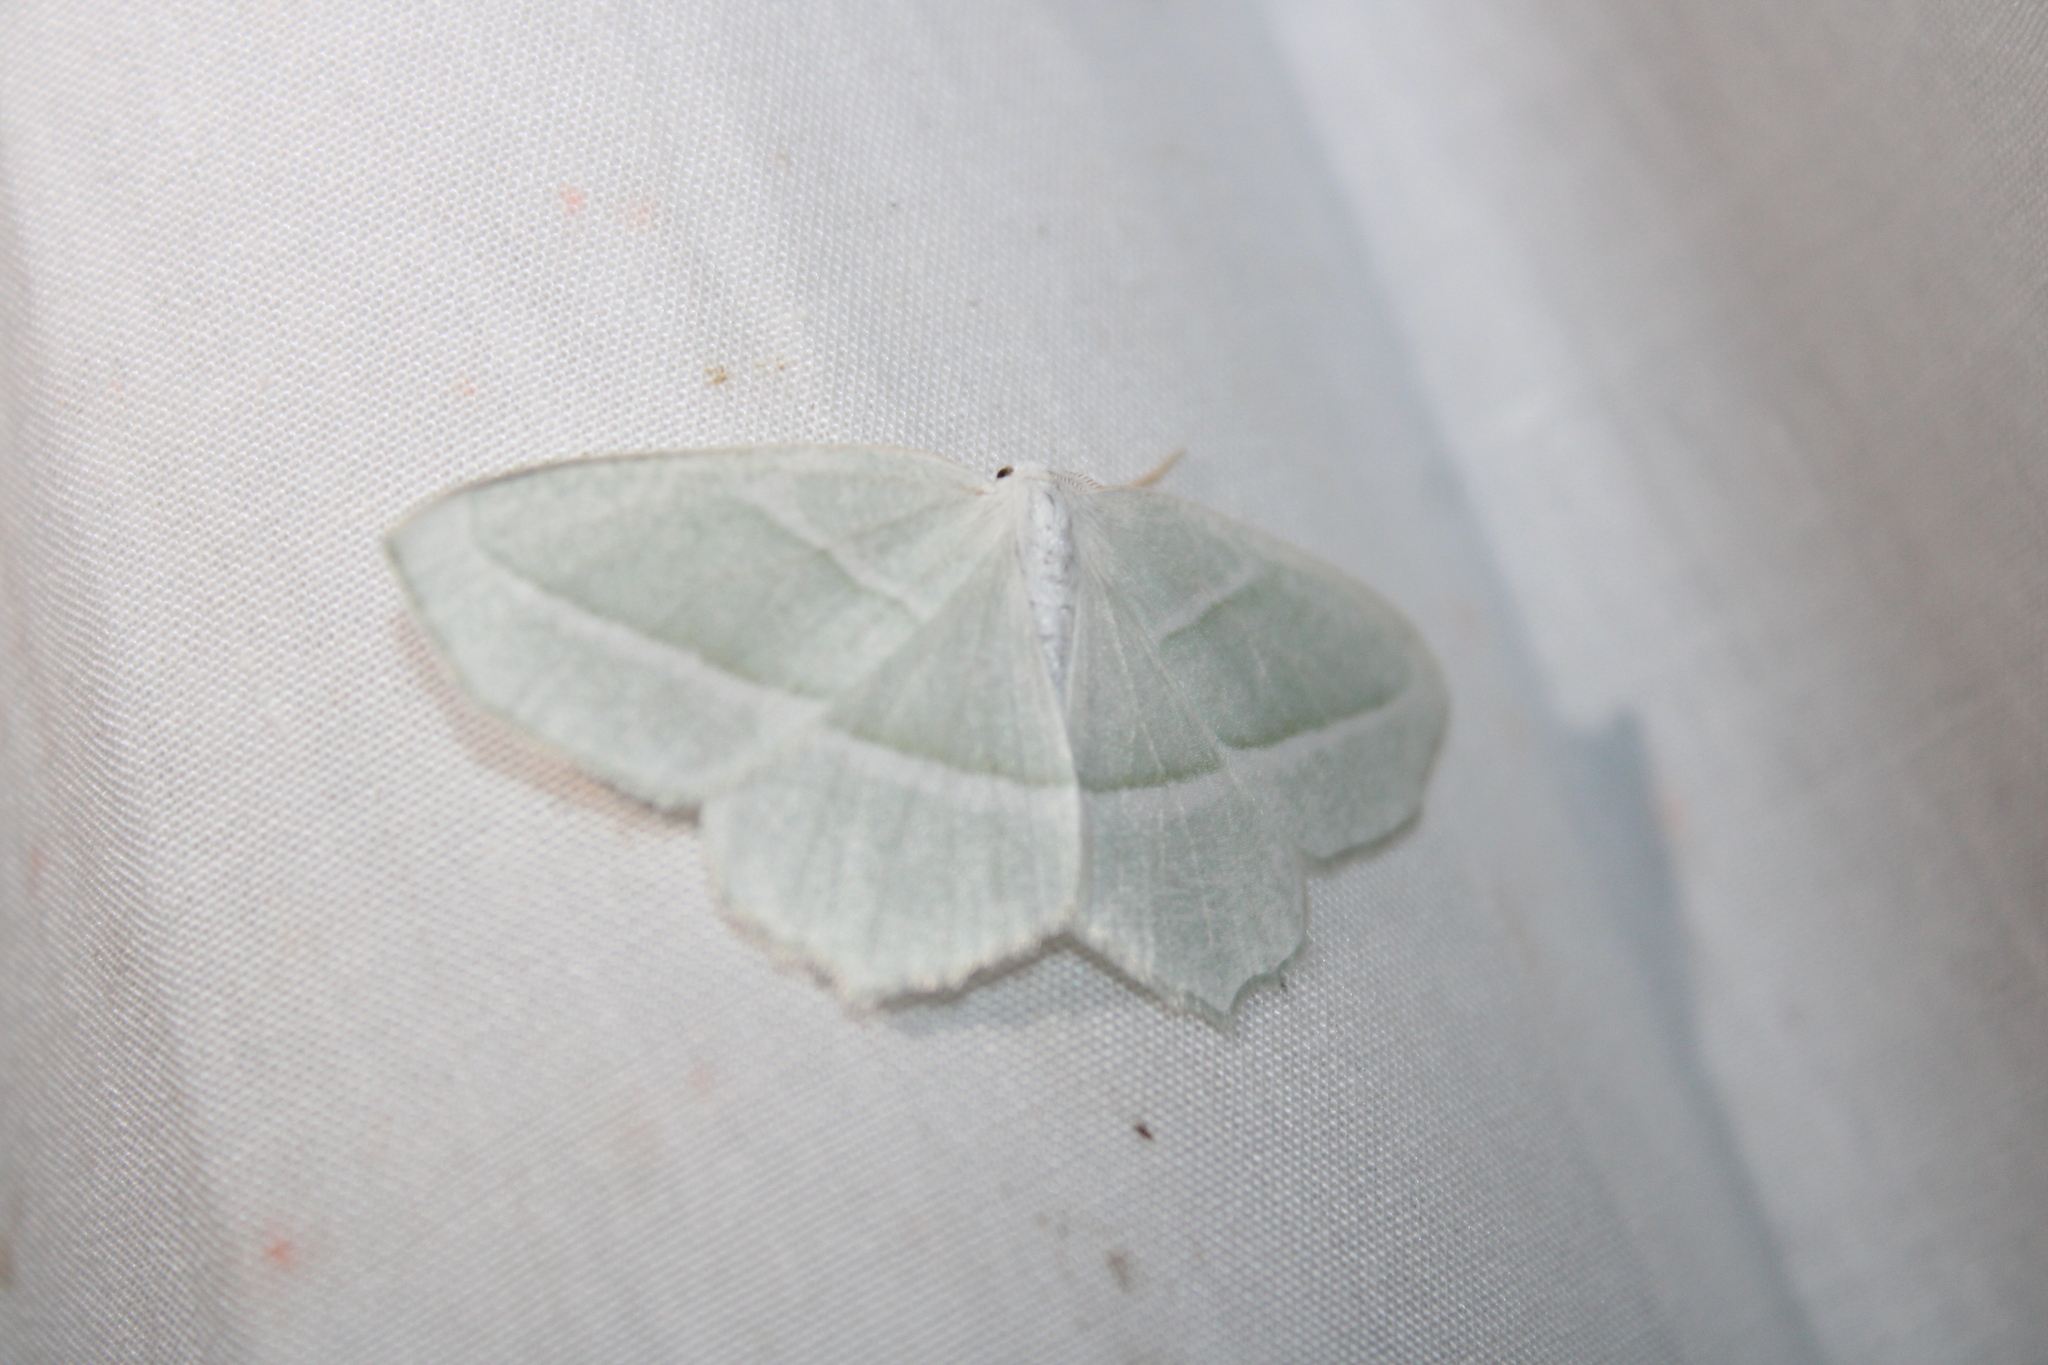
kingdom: Animalia
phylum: Arthropoda
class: Insecta
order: Lepidoptera
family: Geometridae
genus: Campaea
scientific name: Campaea perlata
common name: Fringed looper
